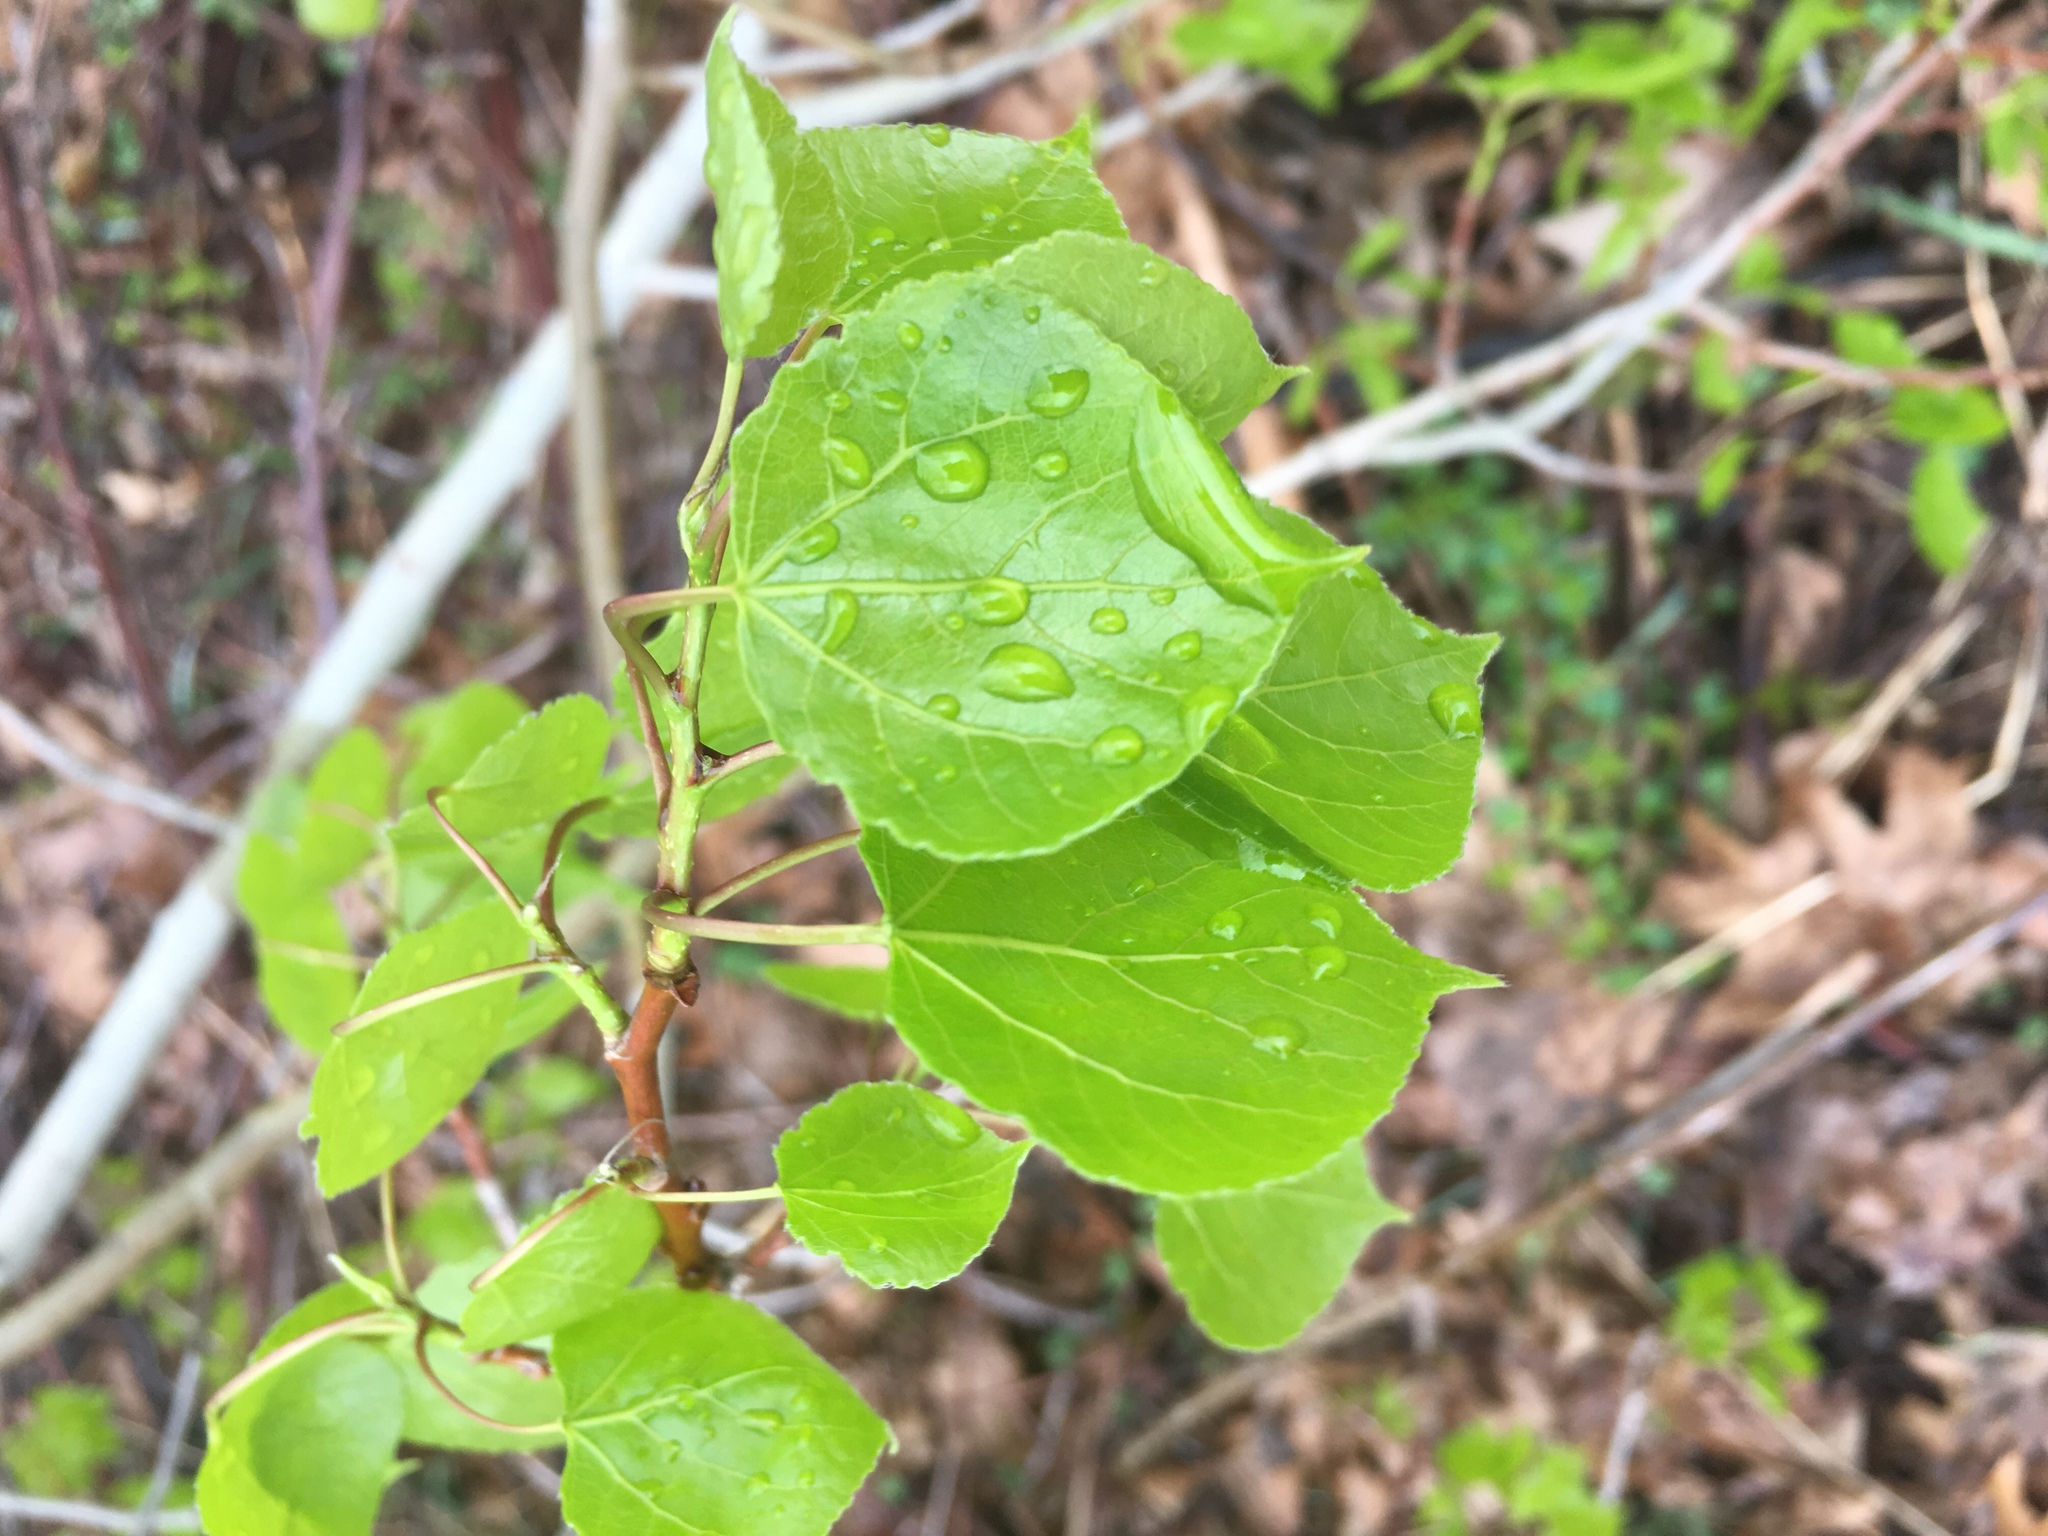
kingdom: Plantae
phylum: Tracheophyta
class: Magnoliopsida
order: Malpighiales
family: Salicaceae
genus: Populus
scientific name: Populus tremuloides
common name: Quaking aspen
